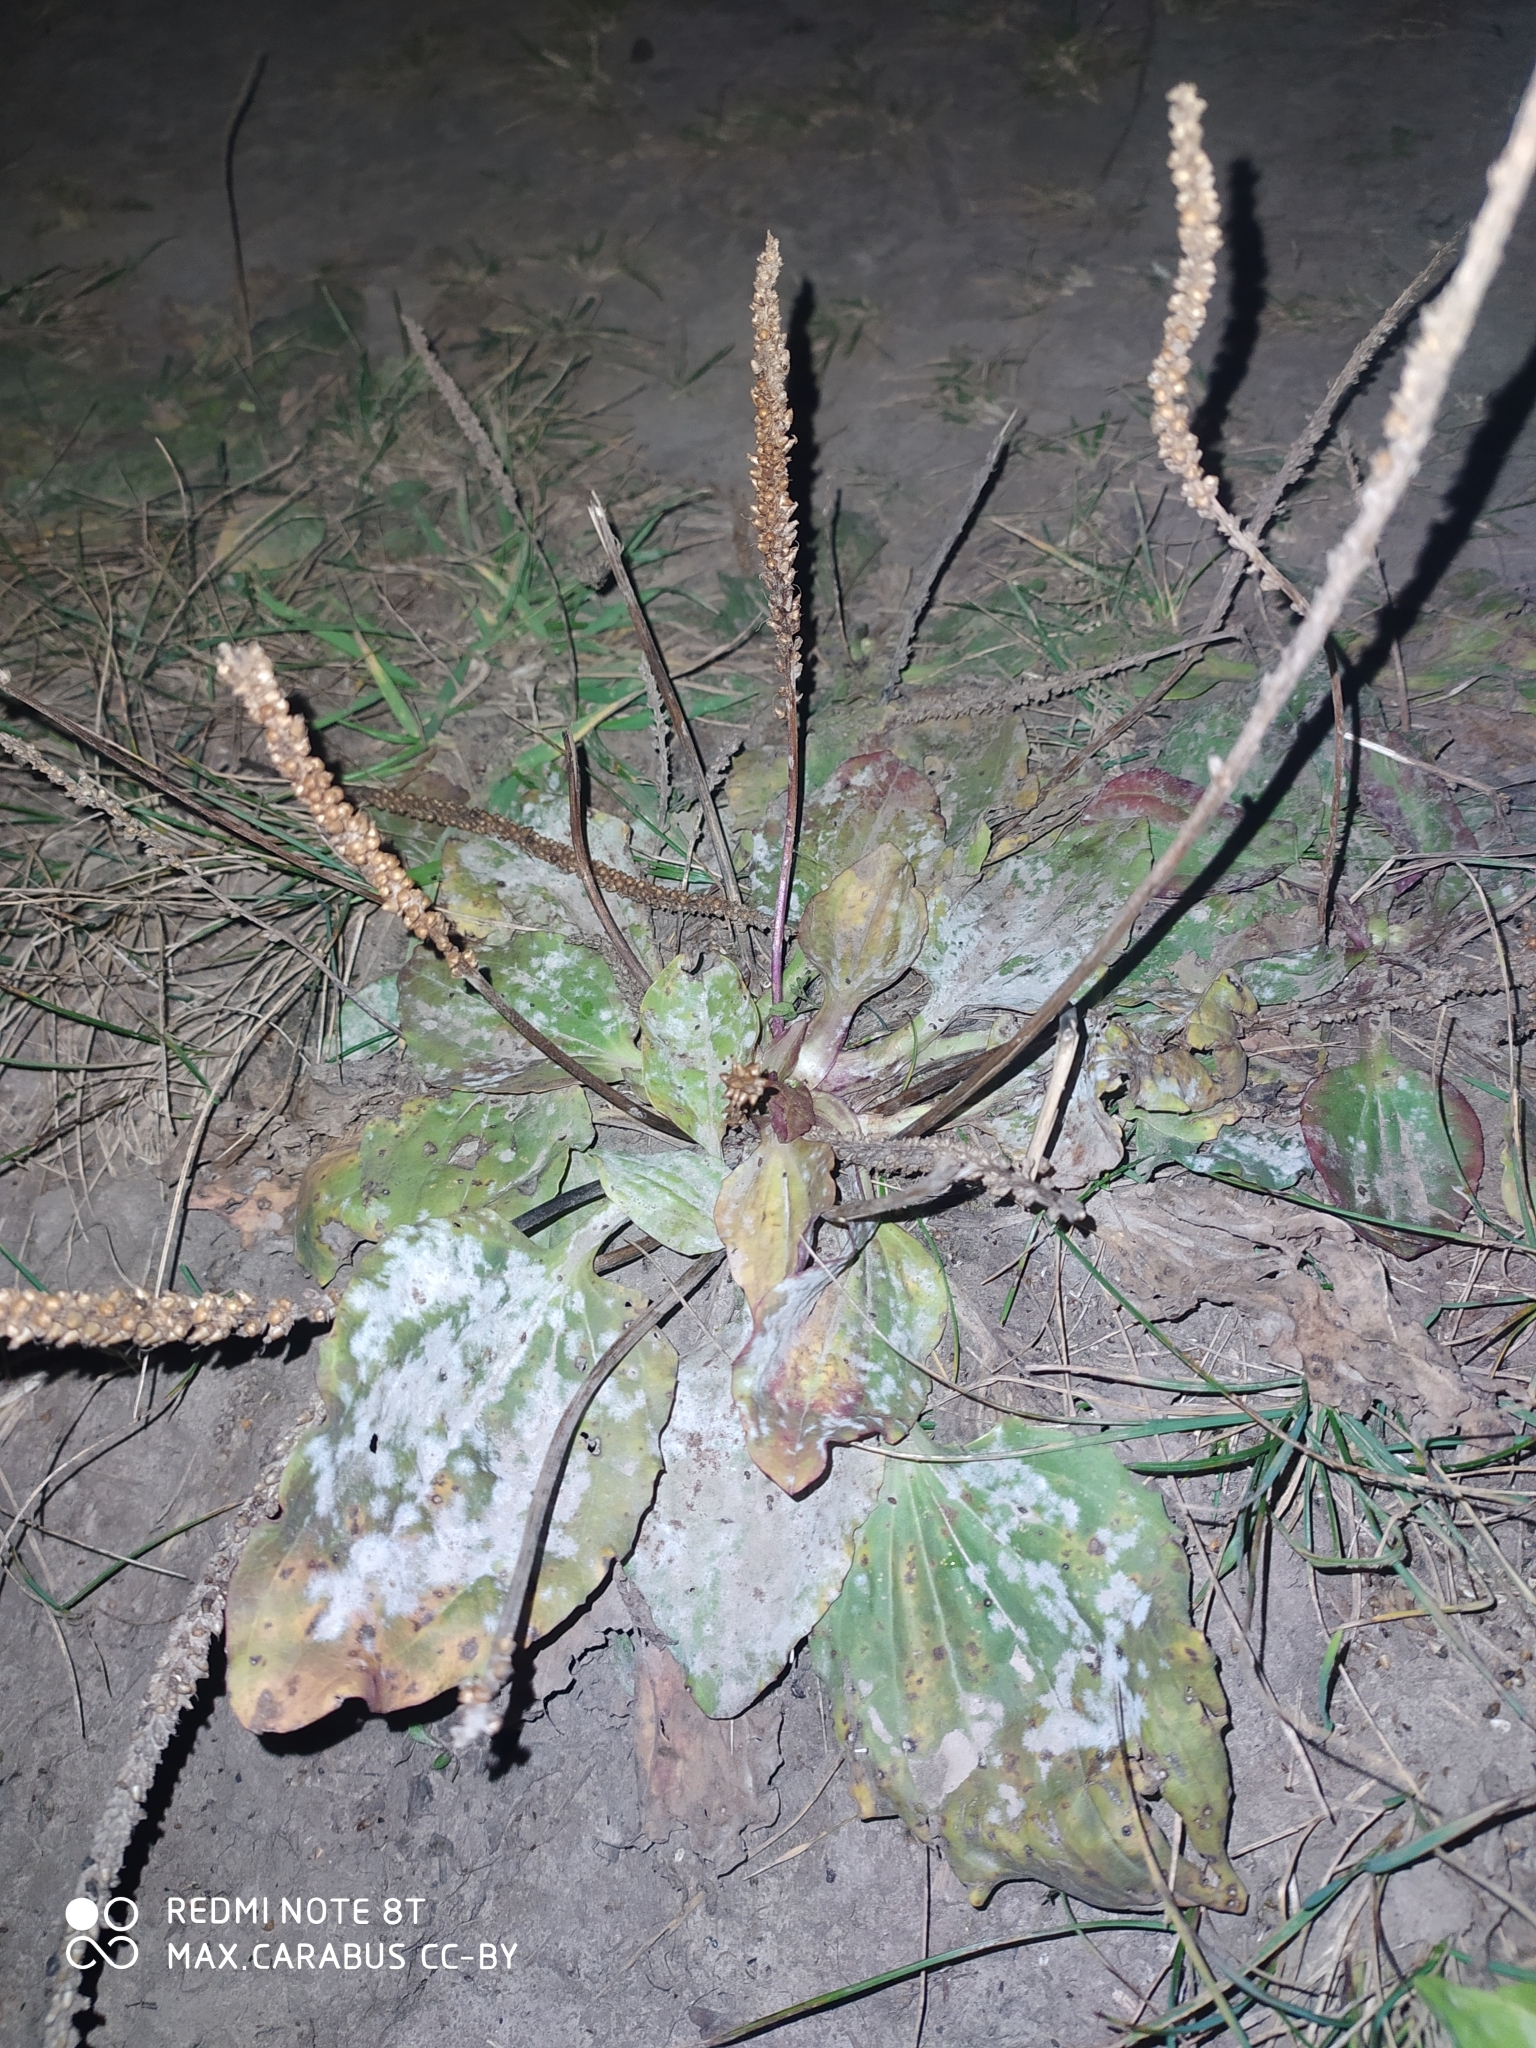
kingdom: Plantae
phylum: Tracheophyta
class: Magnoliopsida
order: Lamiales
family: Plantaginaceae
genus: Plantago
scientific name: Plantago major
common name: Common plantain
